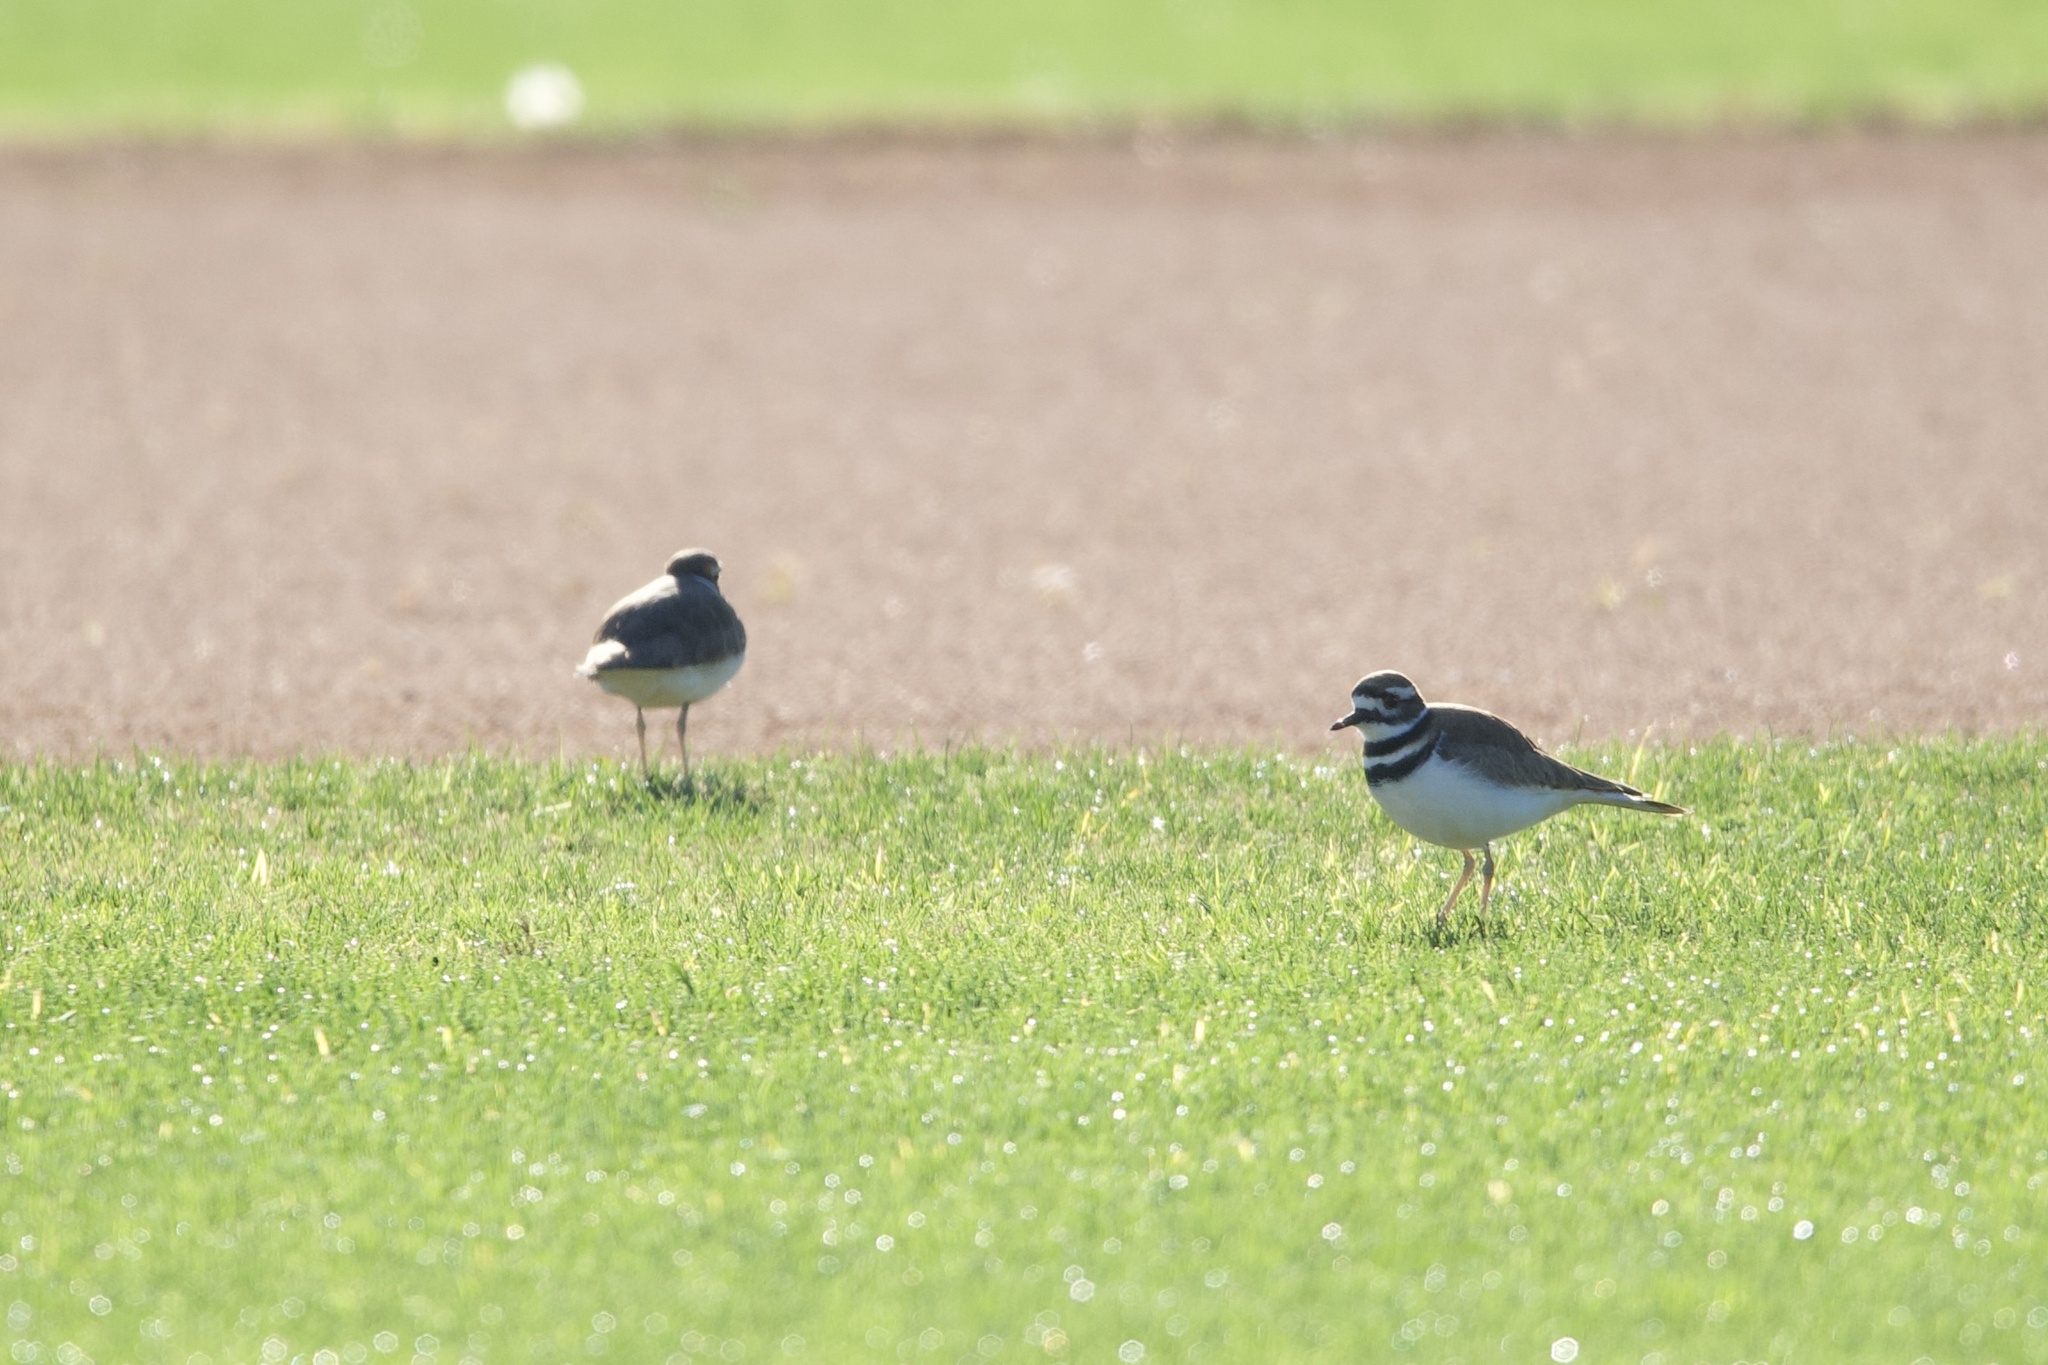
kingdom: Animalia
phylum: Chordata
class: Aves
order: Charadriiformes
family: Charadriidae
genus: Charadrius
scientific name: Charadrius vociferus
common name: Killdeer
